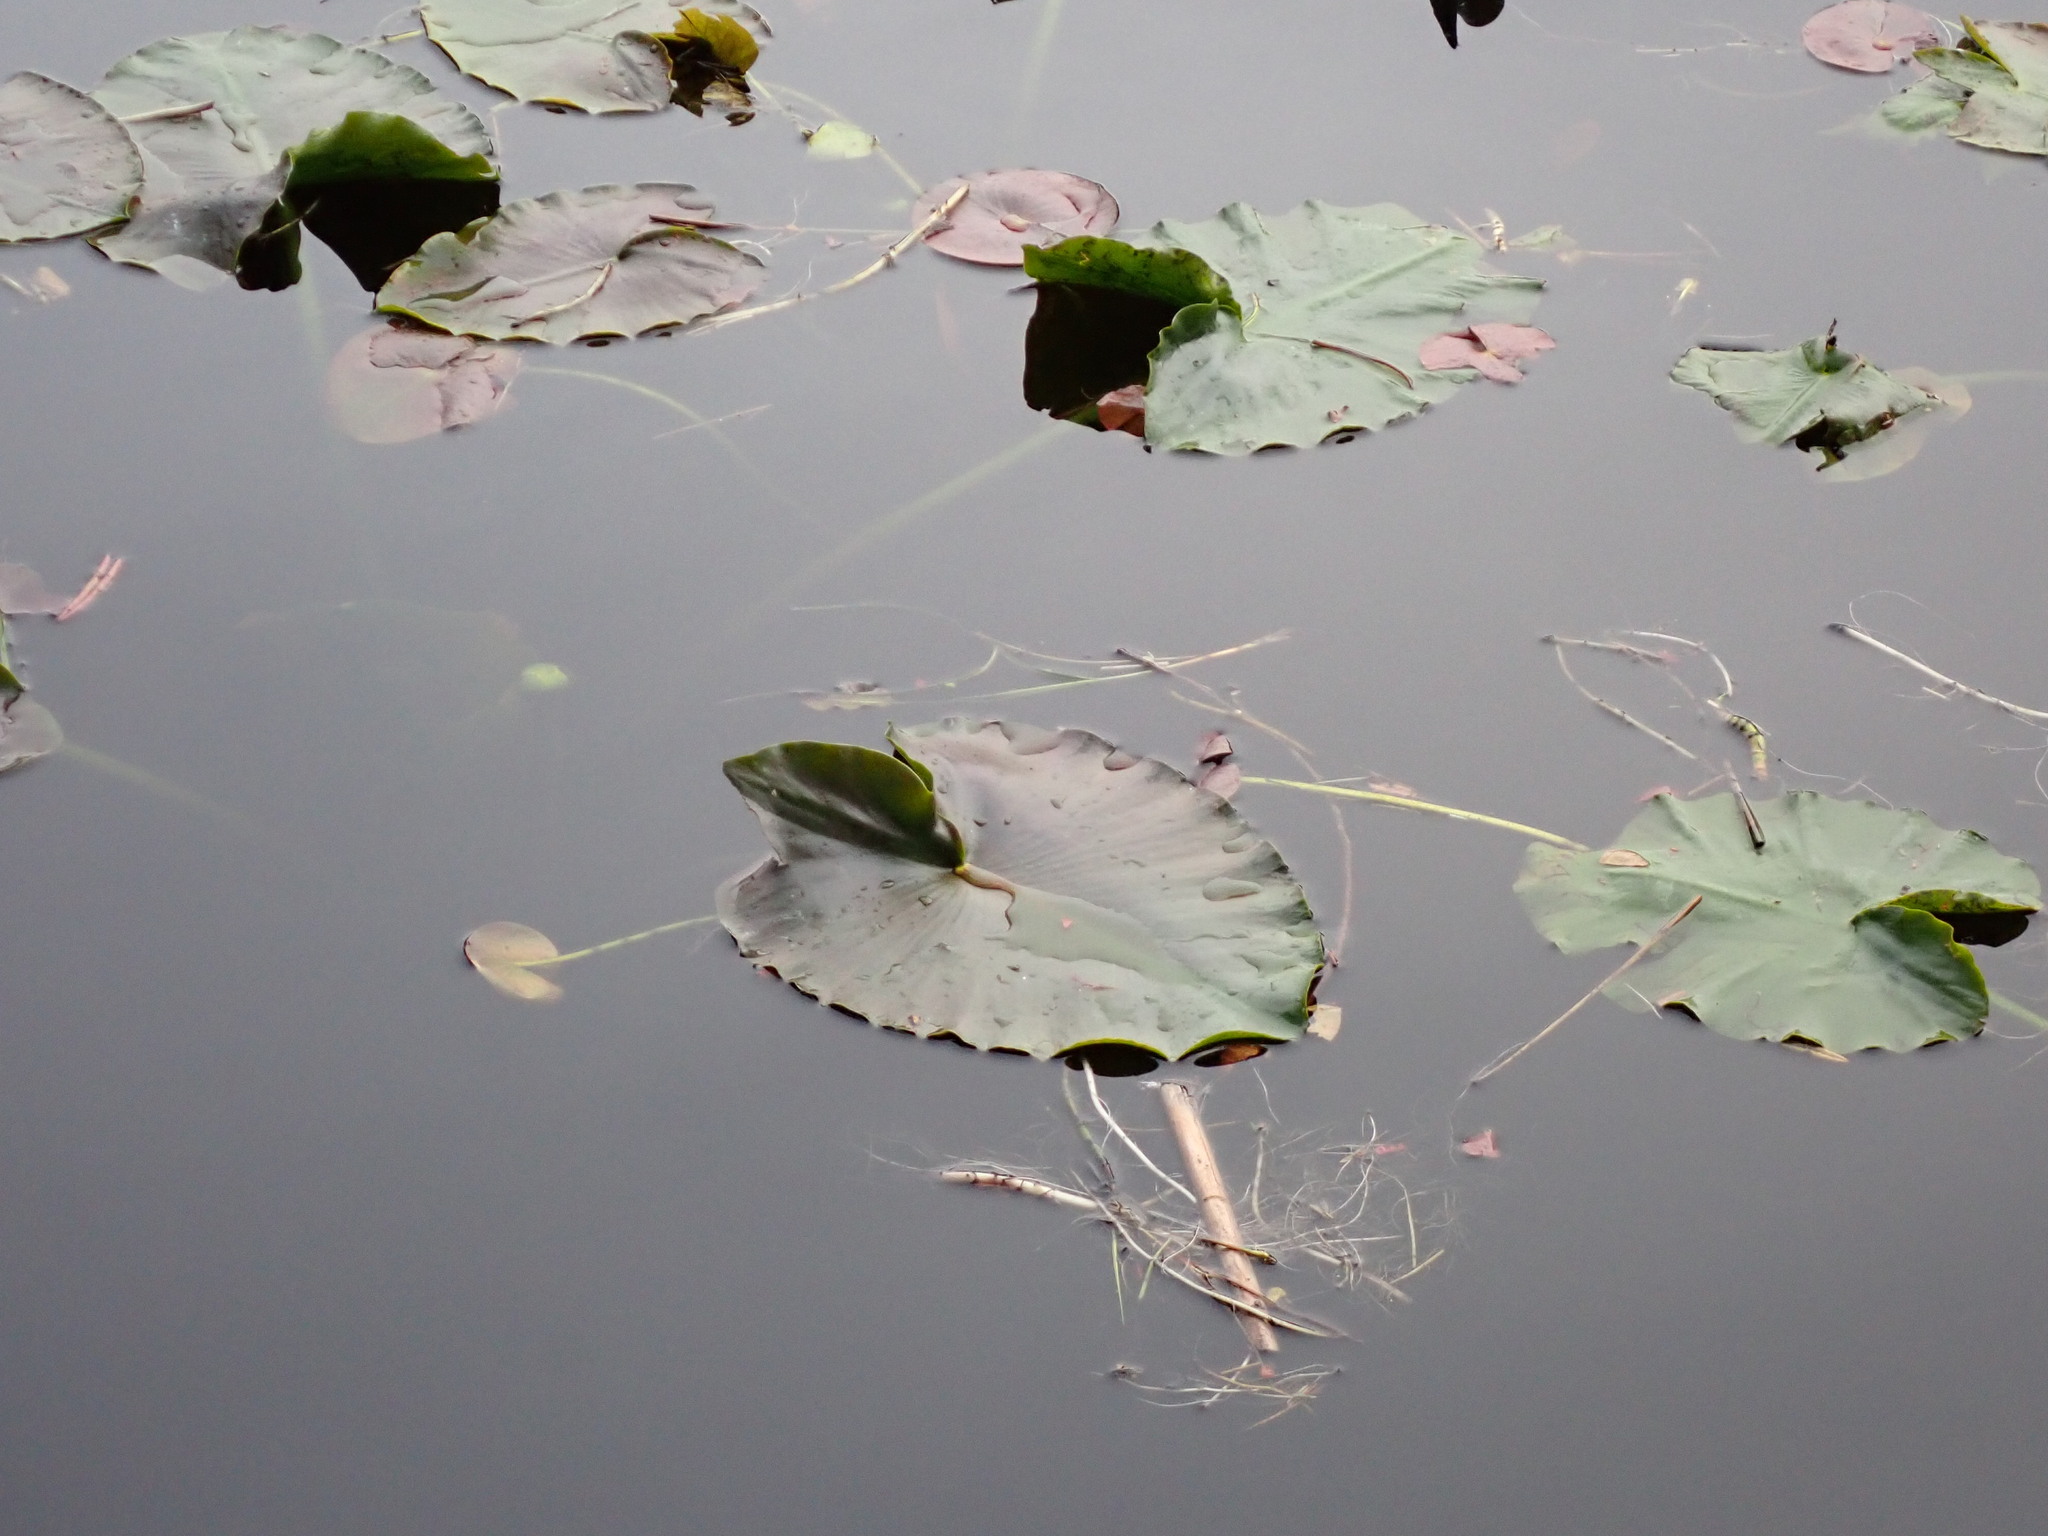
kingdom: Plantae
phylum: Tracheophyta
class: Magnoliopsida
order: Nymphaeales
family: Nymphaeaceae
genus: Nuphar
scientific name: Nuphar polysepala
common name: Rocky mountain cow-lily
